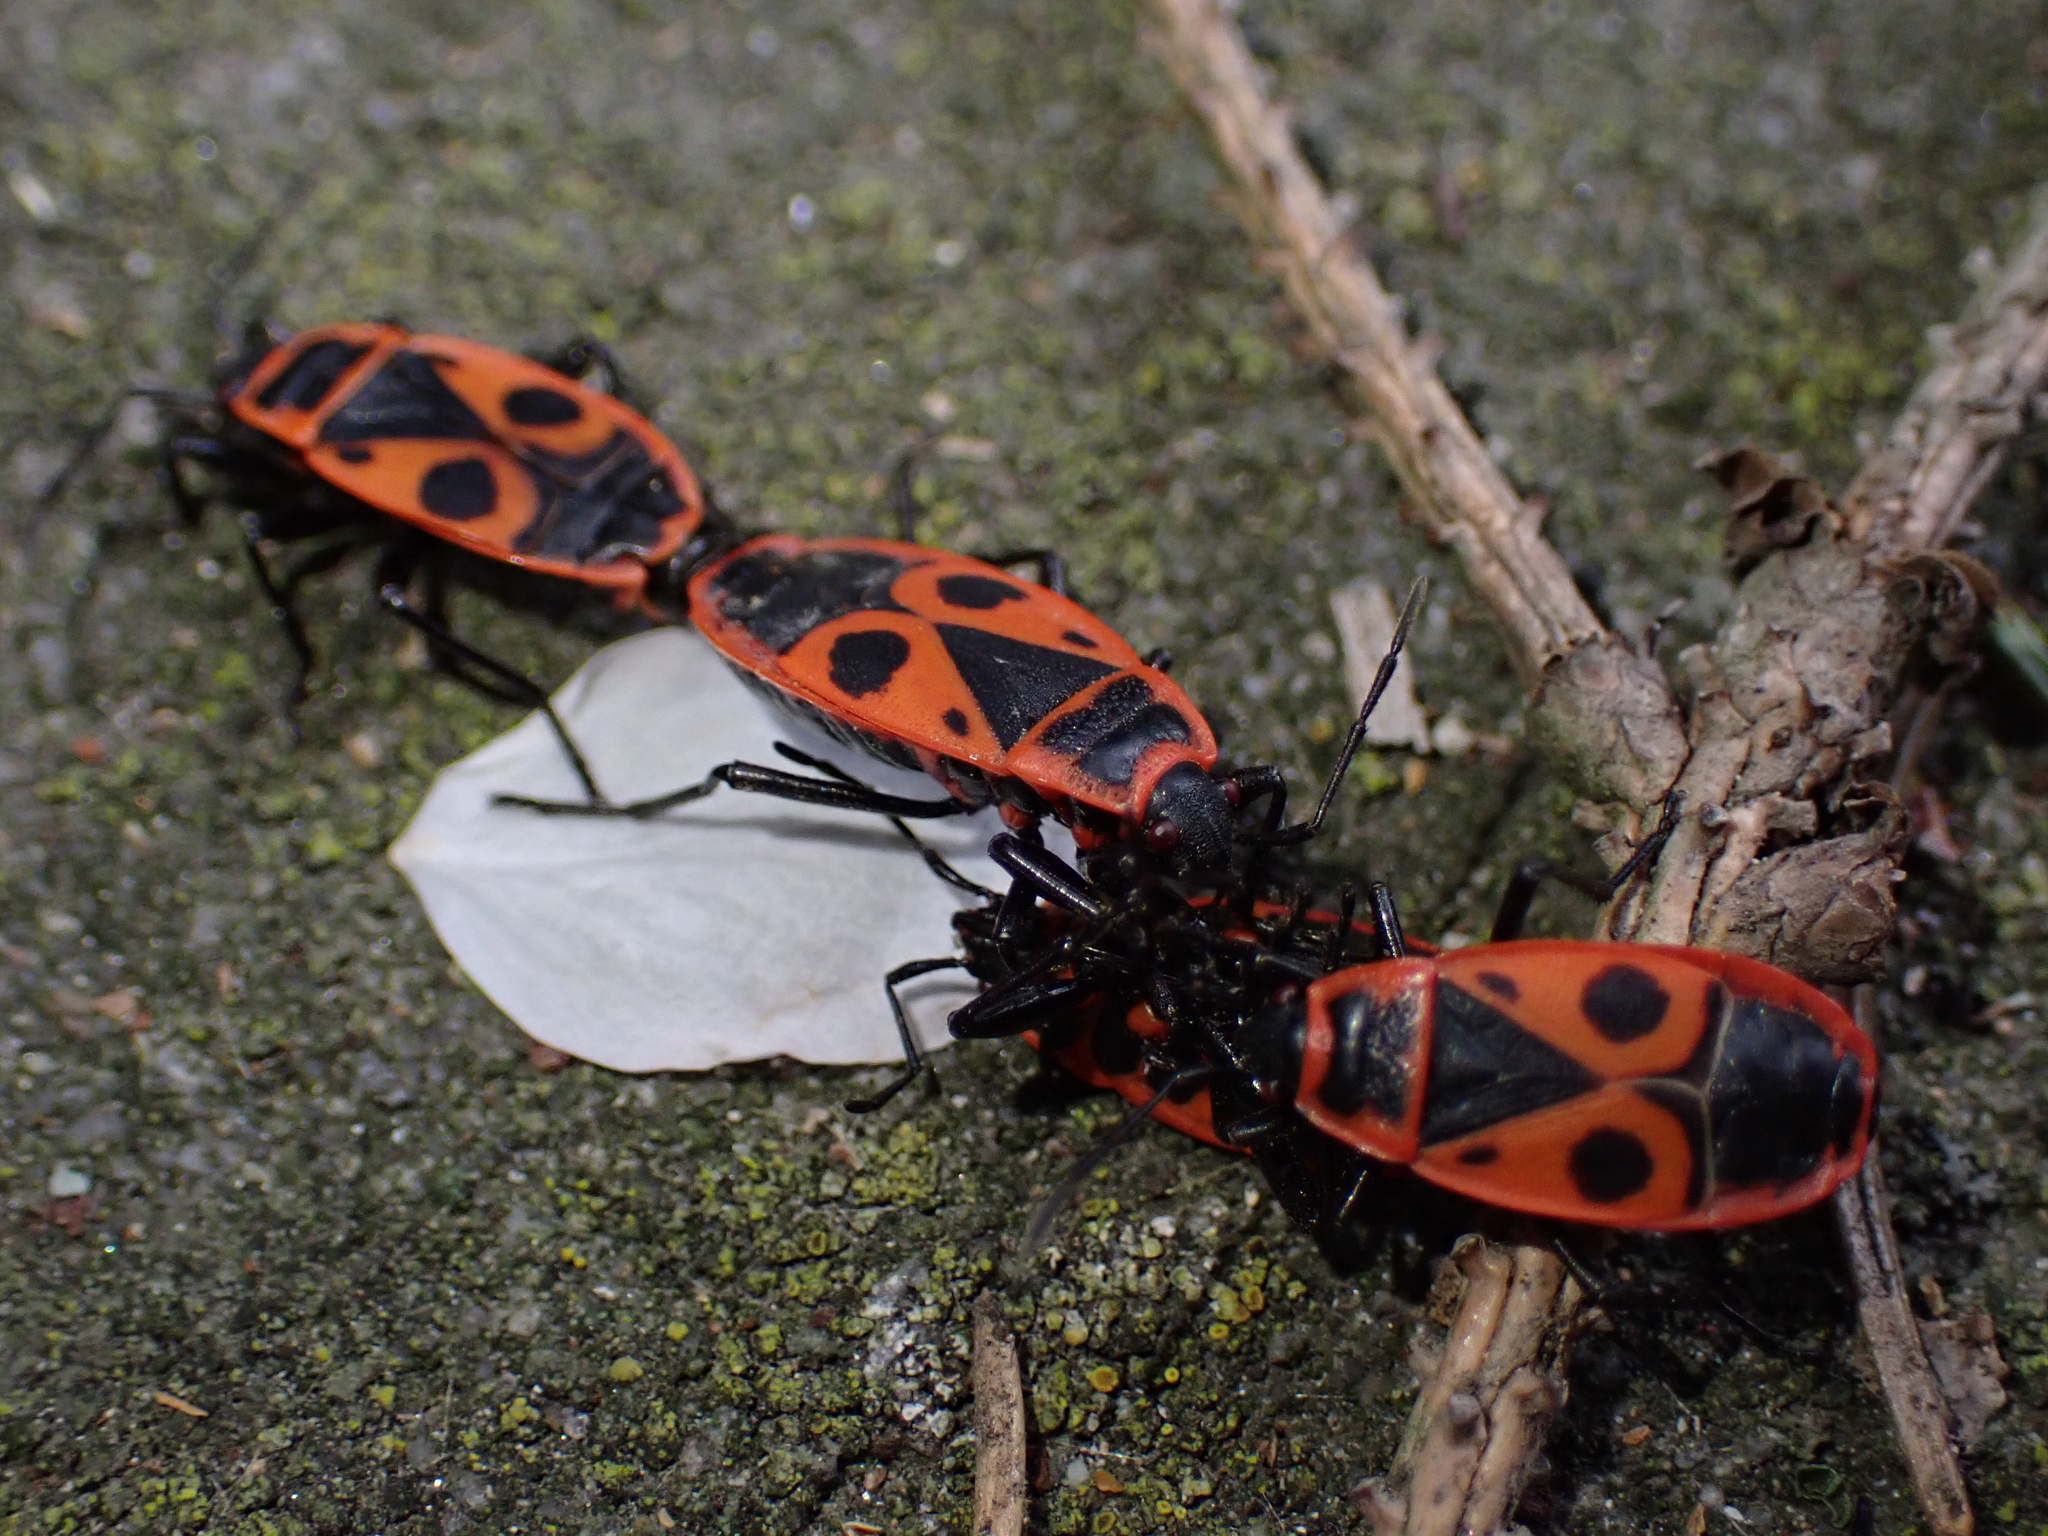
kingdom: Animalia
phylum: Arthropoda
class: Insecta
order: Hemiptera
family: Pyrrhocoridae
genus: Pyrrhocoris
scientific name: Pyrrhocoris apterus
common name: Firebug
